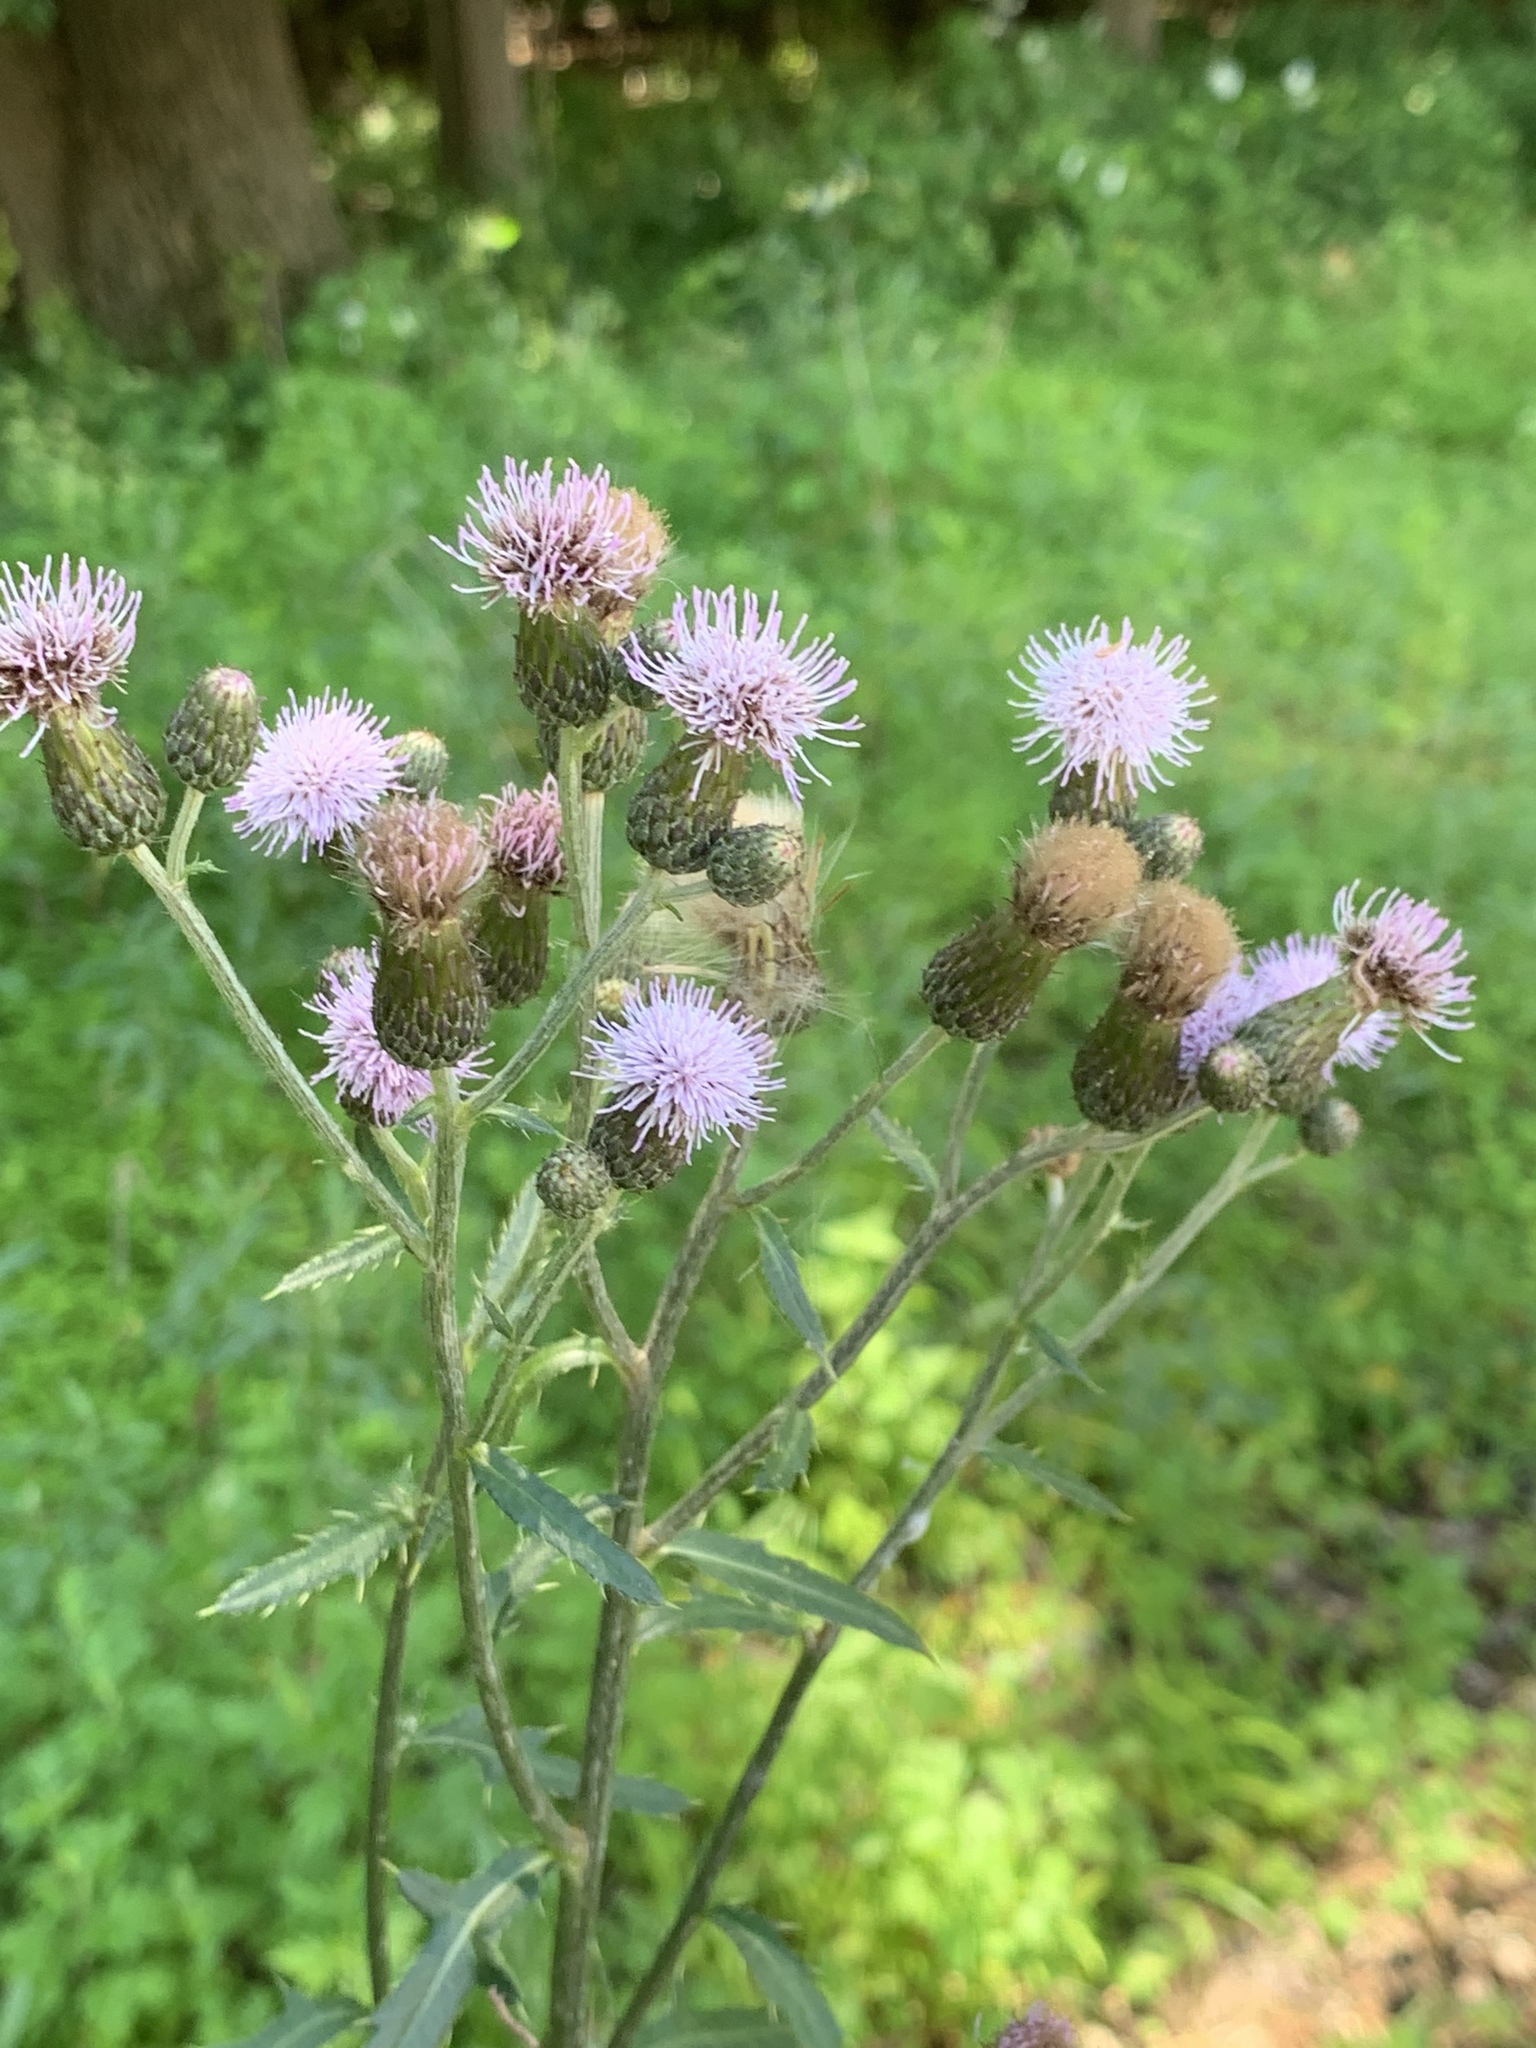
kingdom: Plantae
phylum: Tracheophyta
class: Magnoliopsida
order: Asterales
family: Asteraceae
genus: Cirsium
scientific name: Cirsium arvense
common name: Creeping thistle
